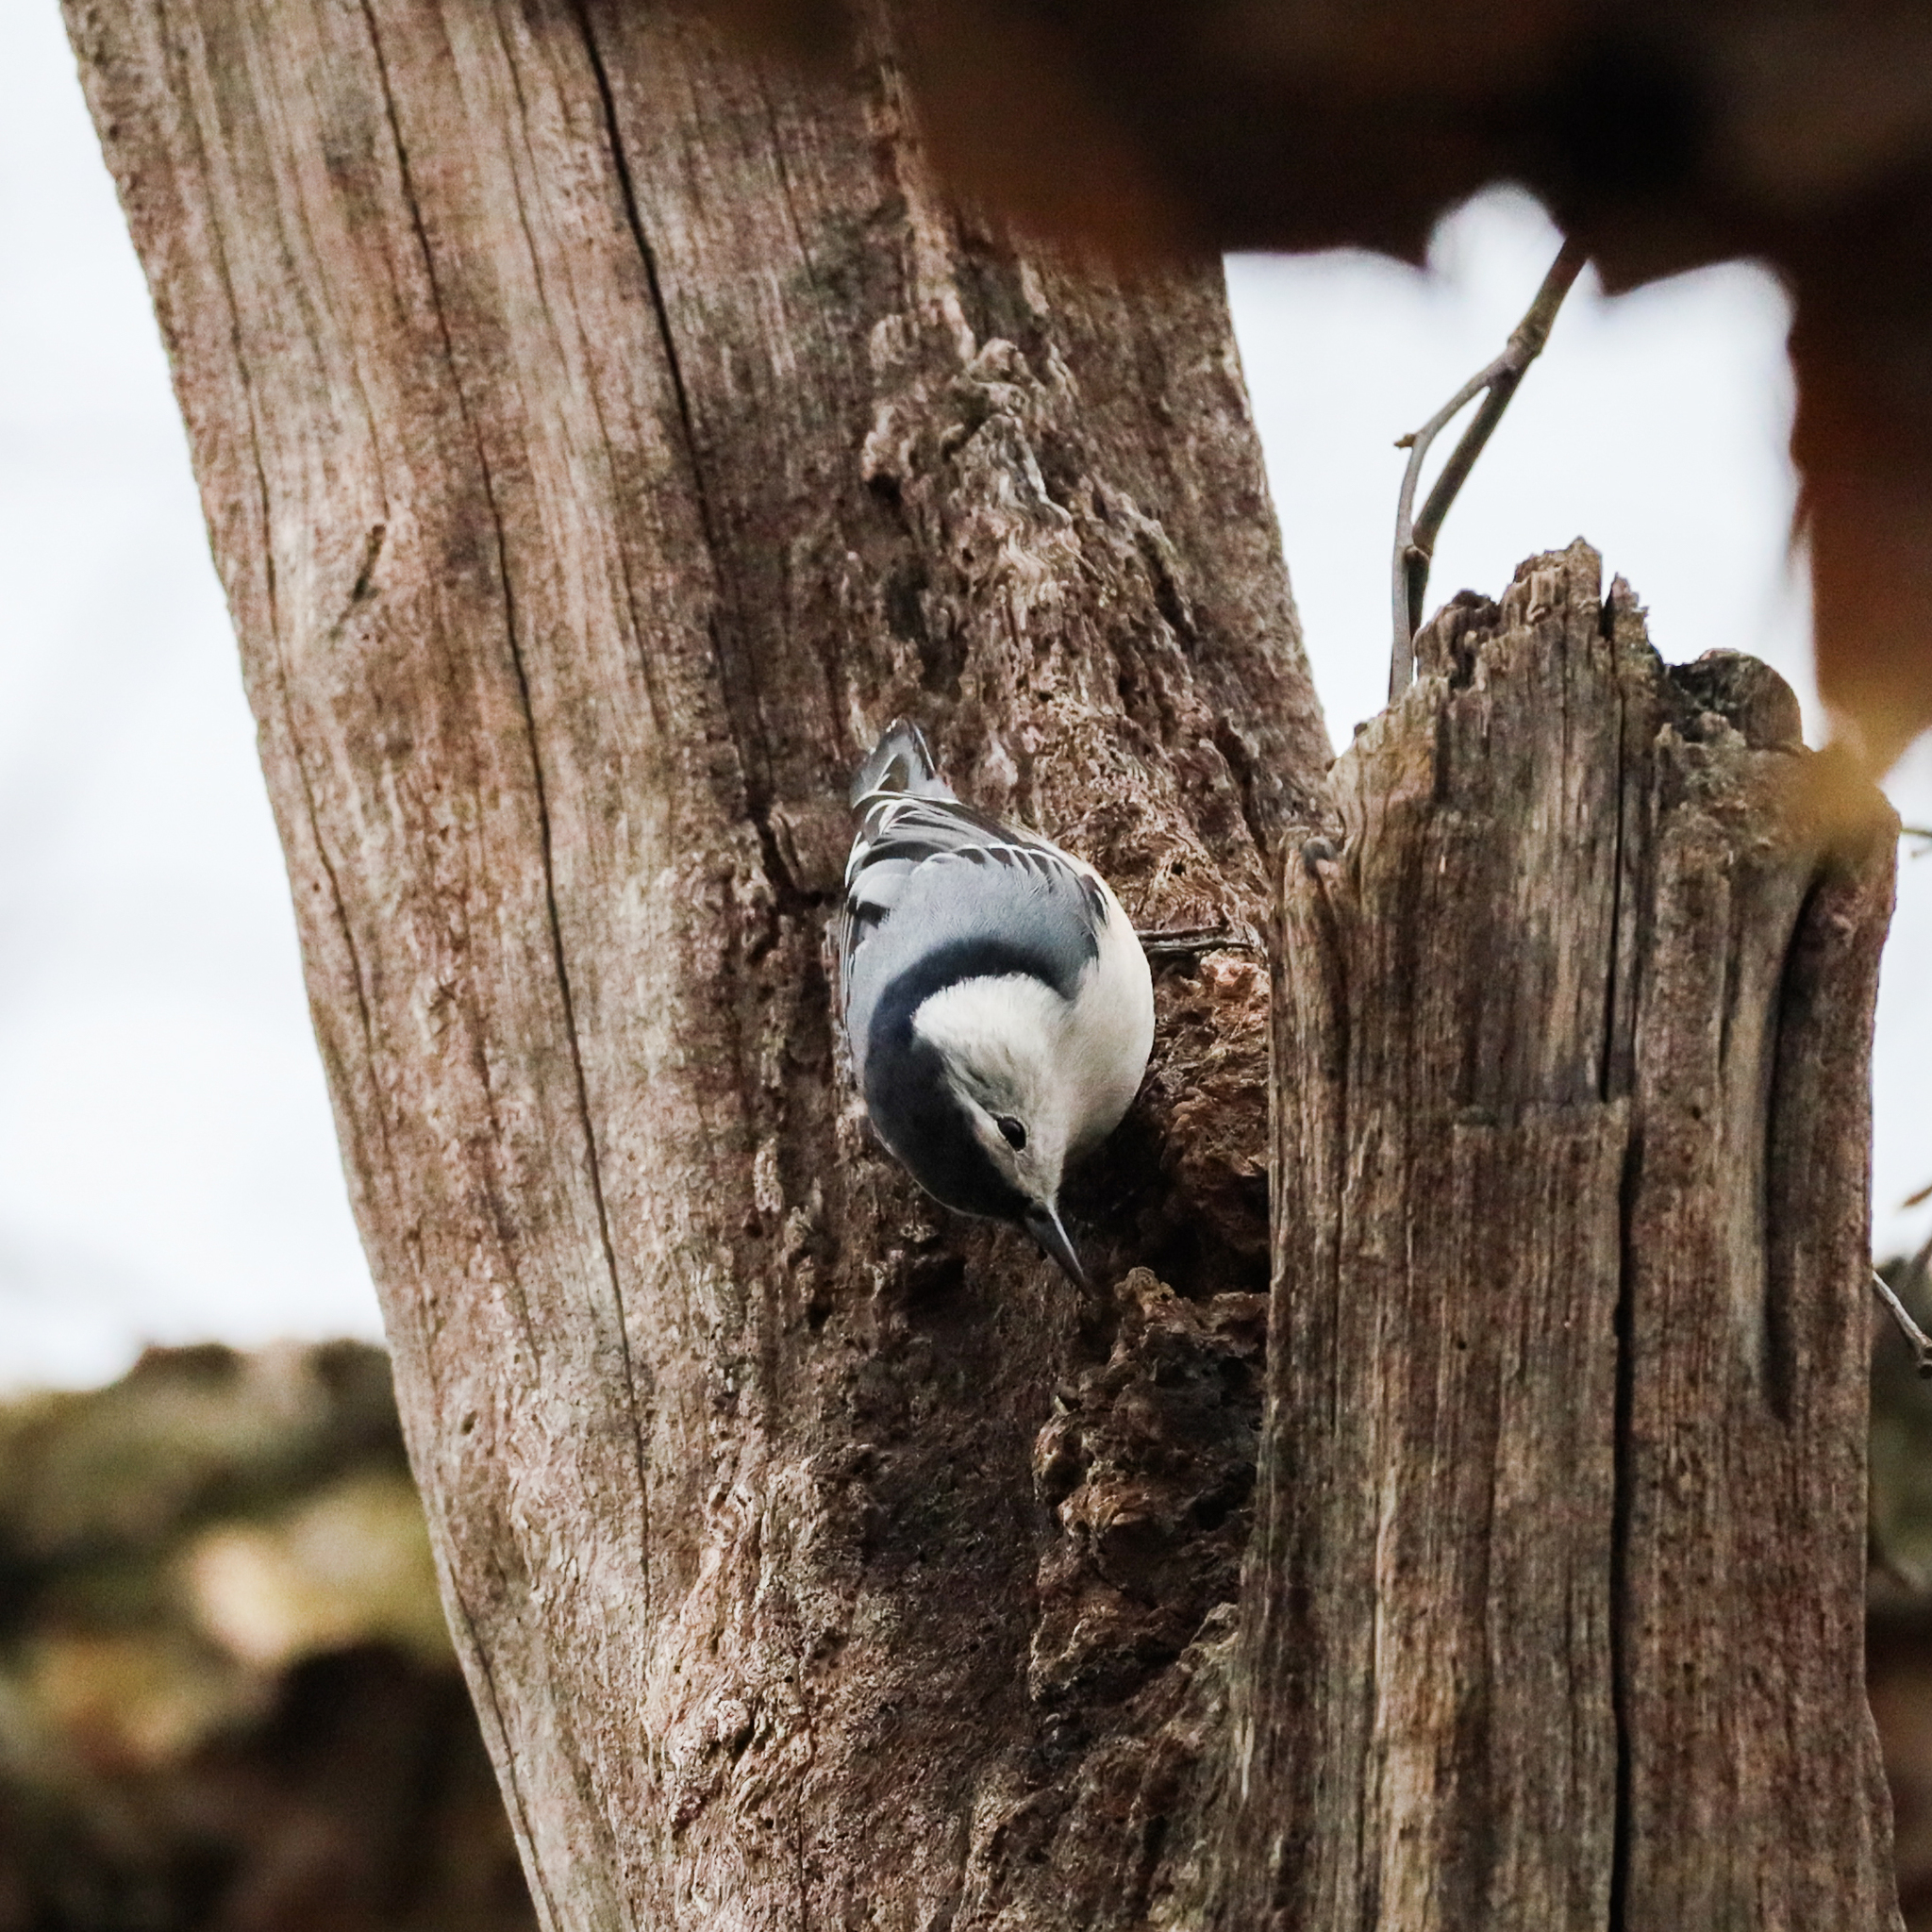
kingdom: Animalia
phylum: Chordata
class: Aves
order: Passeriformes
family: Sittidae
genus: Sitta
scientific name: Sitta carolinensis
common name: White-breasted nuthatch
